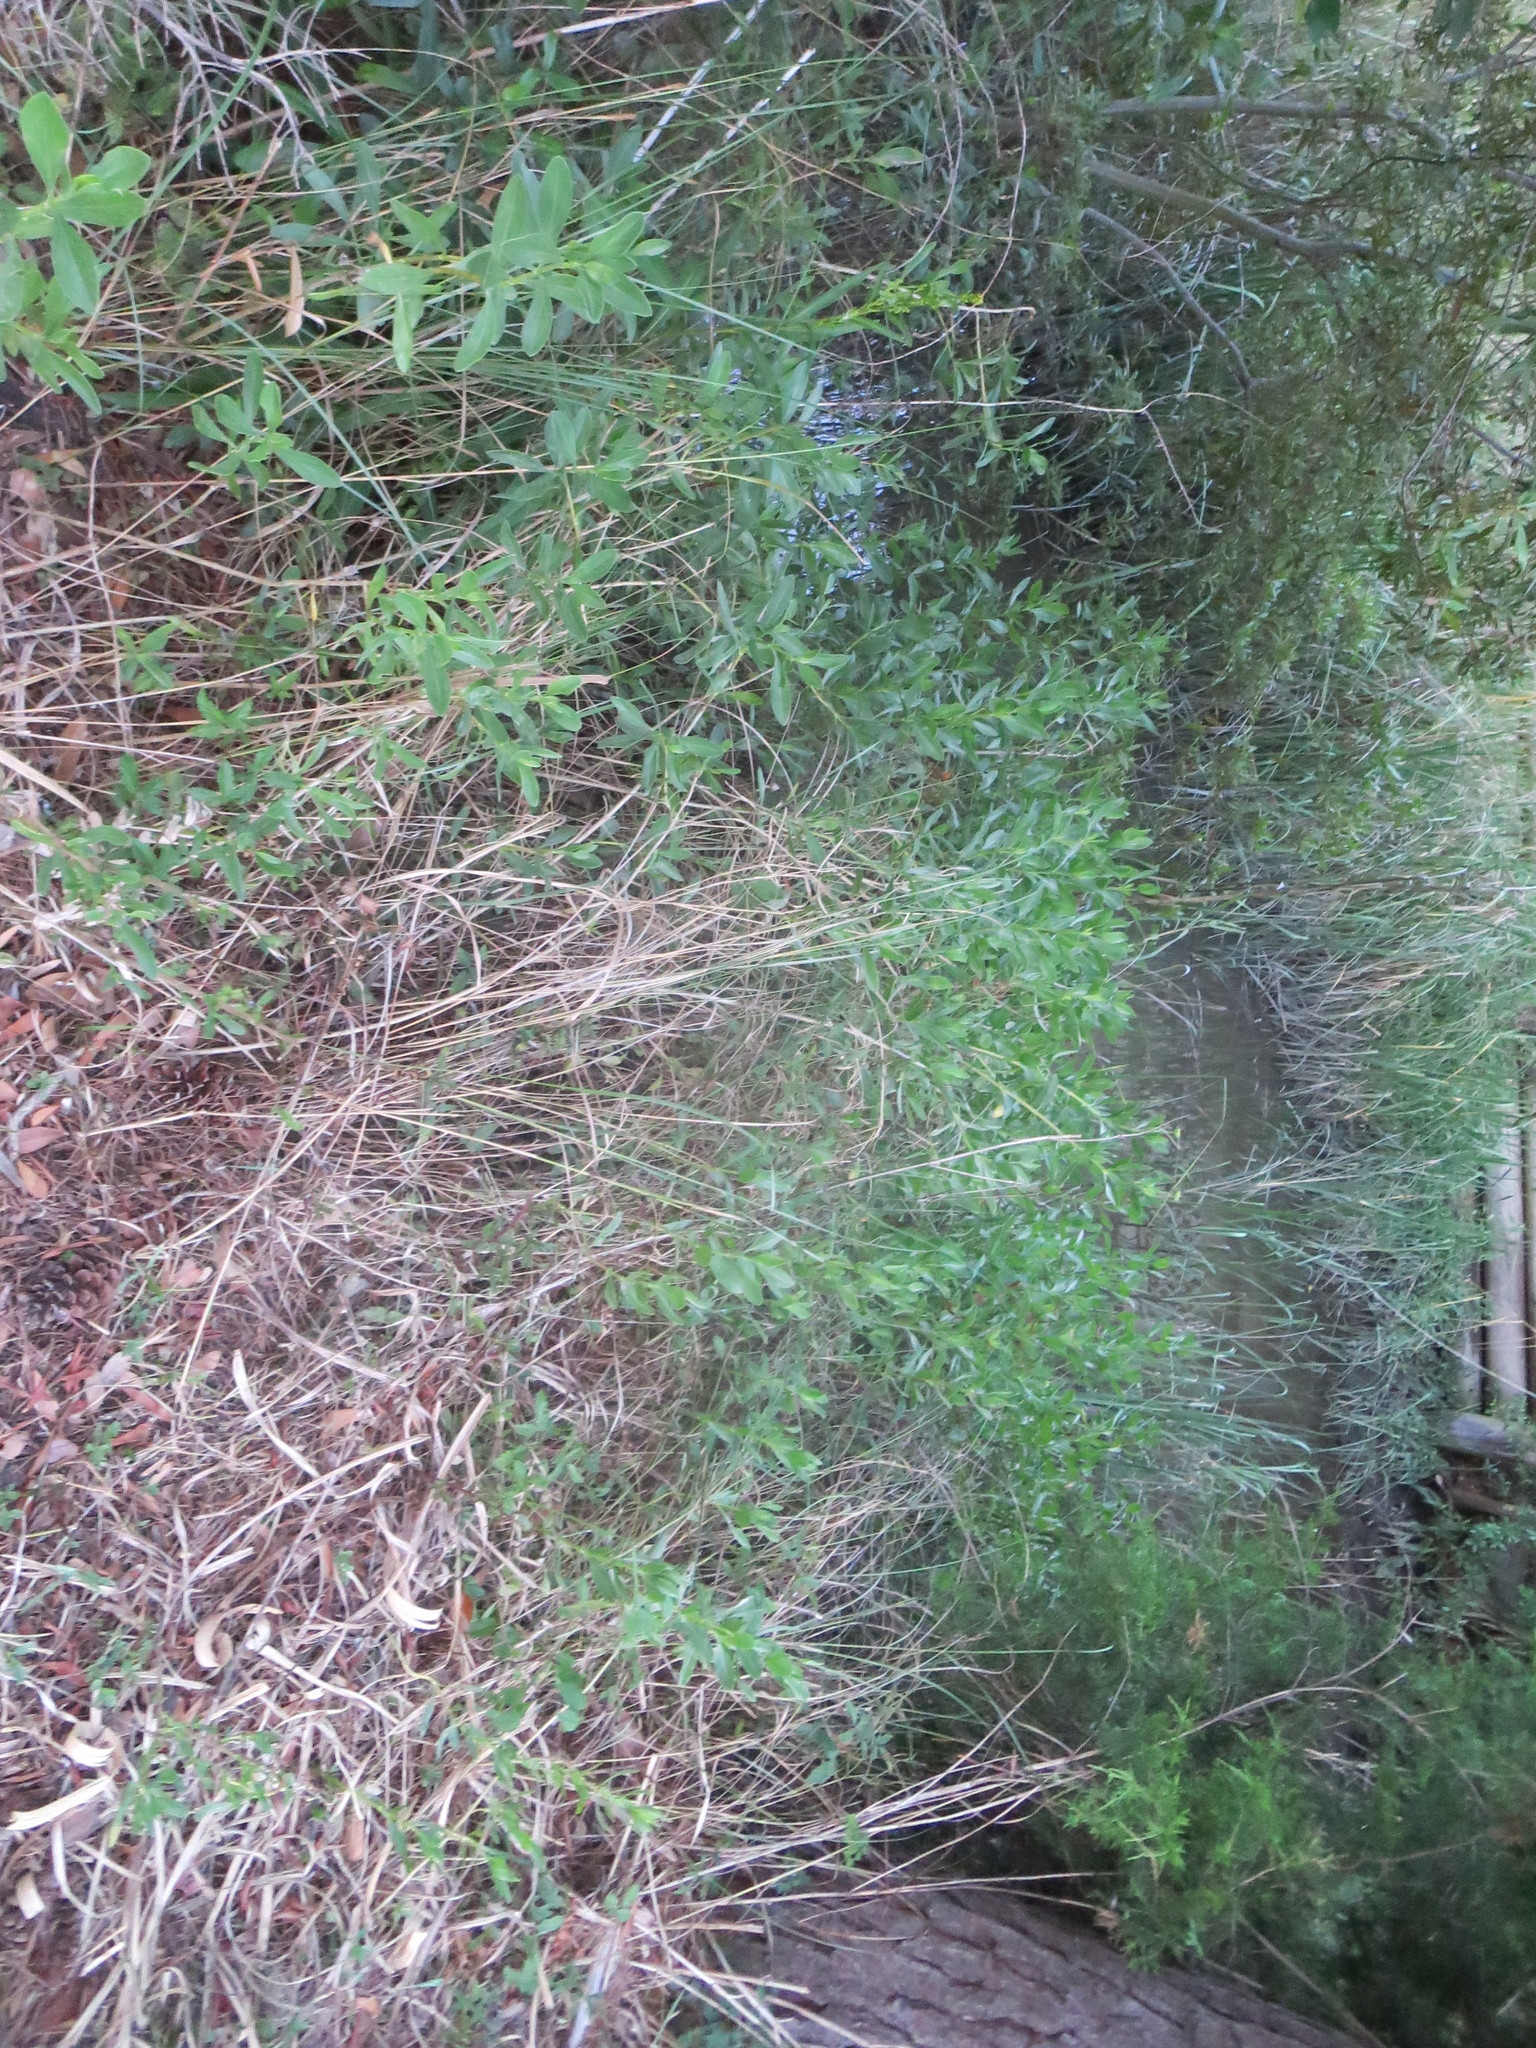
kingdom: Plantae
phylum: Tracheophyta
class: Magnoliopsida
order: Asterales
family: Asteraceae
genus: Borrichia
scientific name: Borrichia frutescens
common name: Sea oxeye
